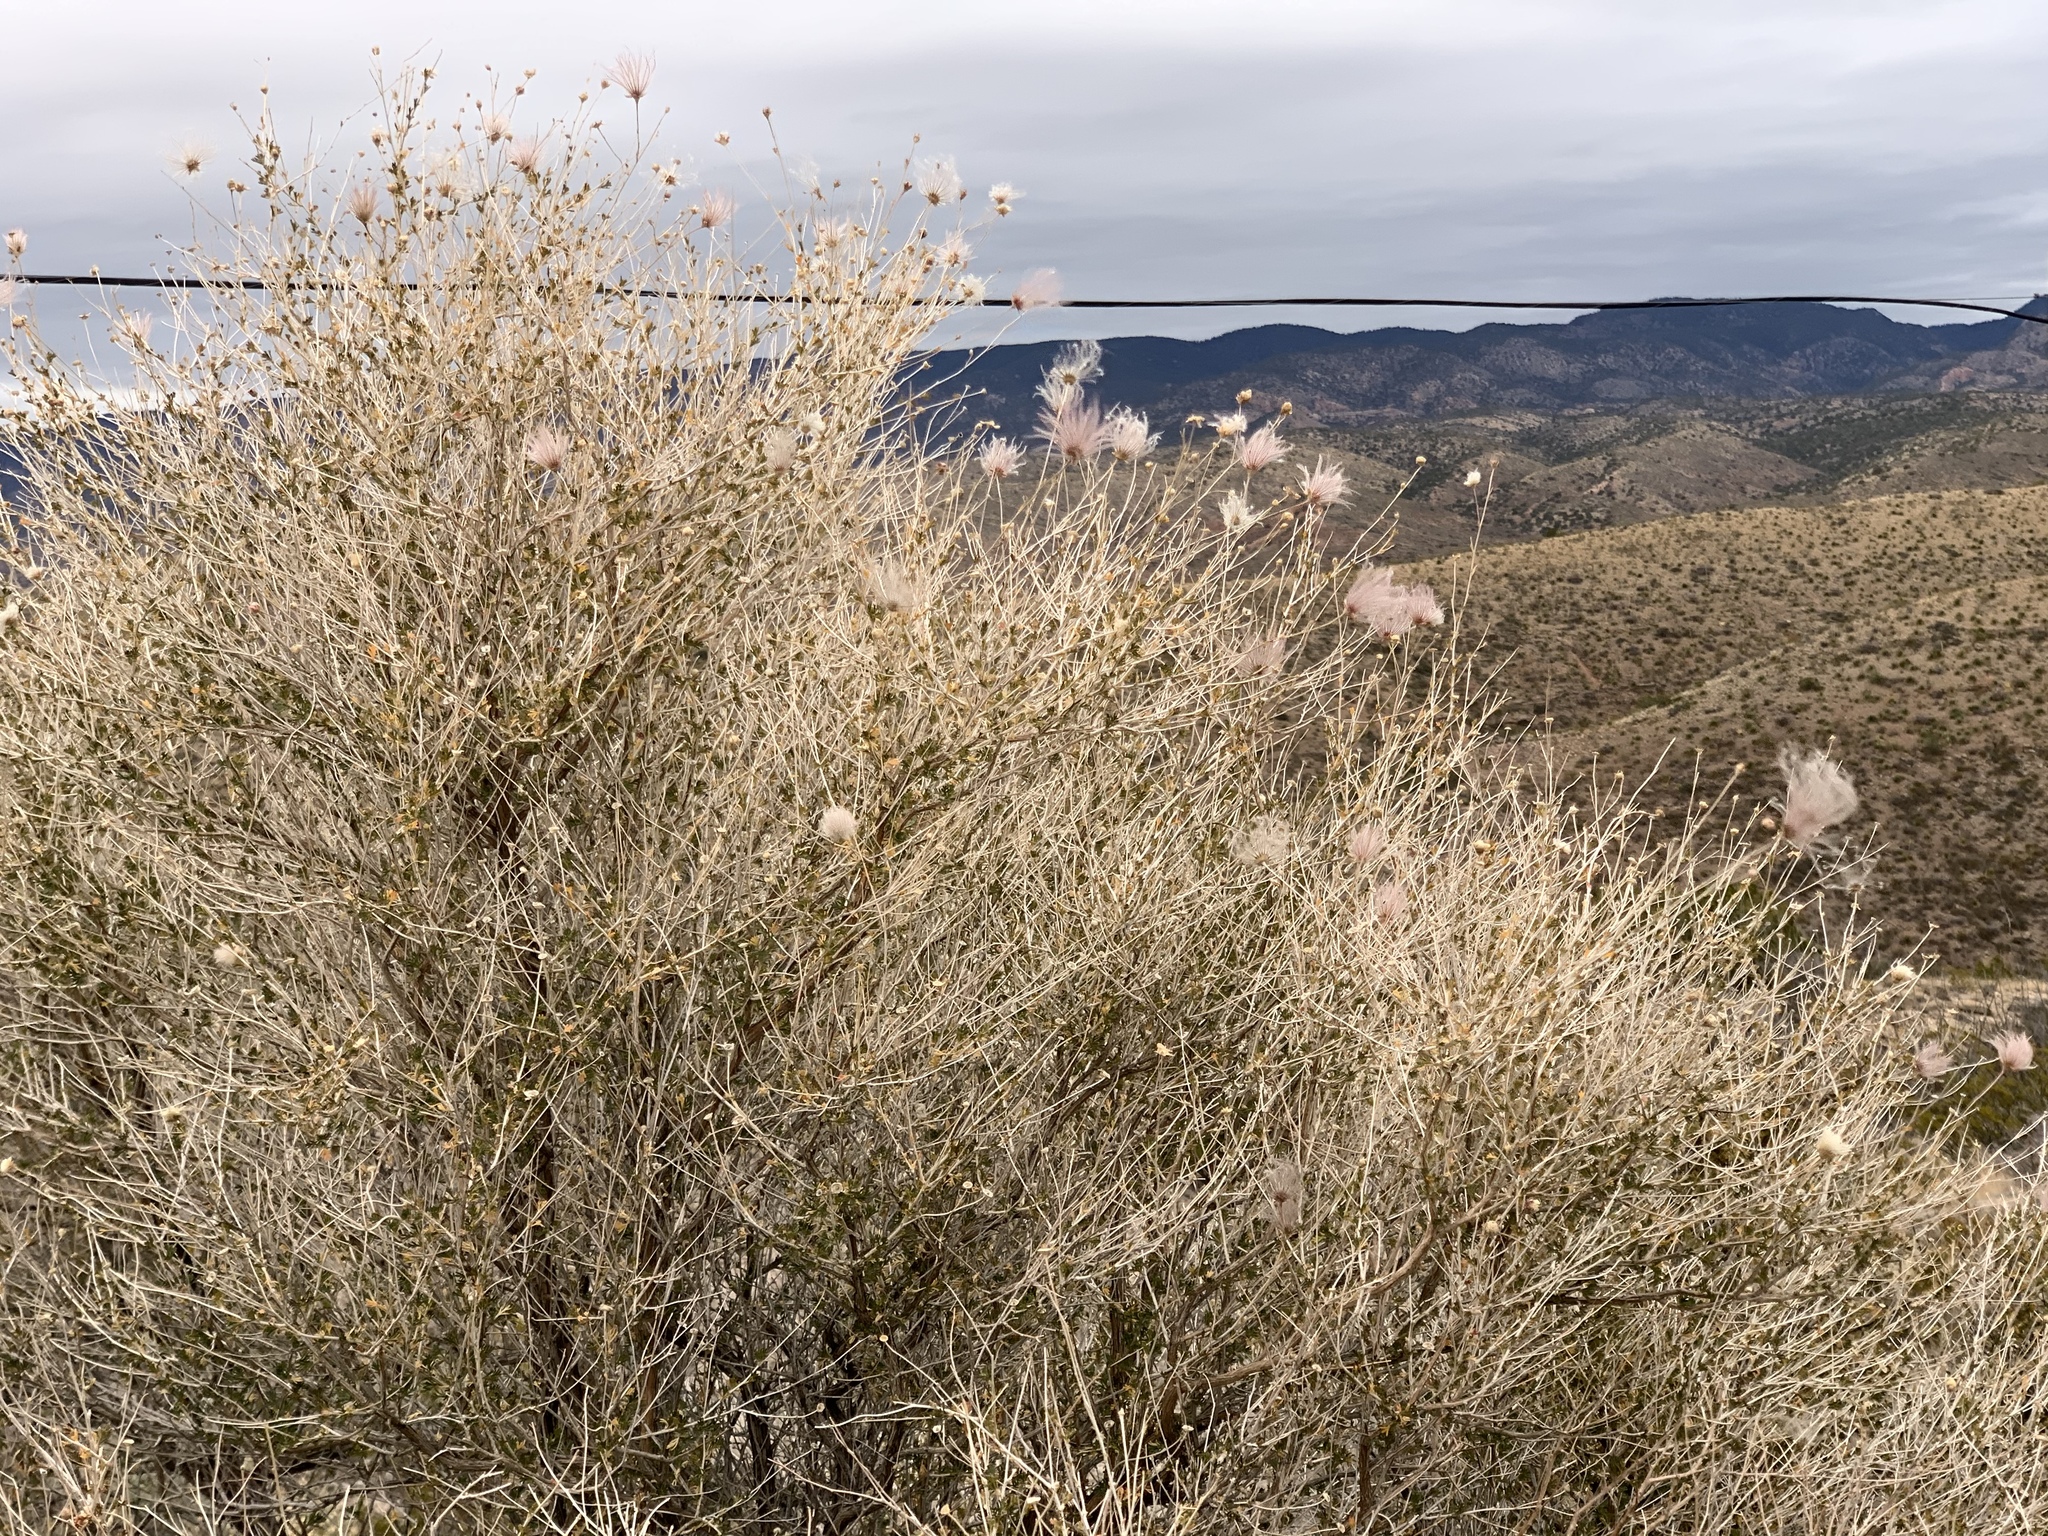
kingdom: Plantae
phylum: Tracheophyta
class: Magnoliopsida
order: Rosales
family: Rosaceae
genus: Fallugia
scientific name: Fallugia paradoxa
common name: Apache-plume
